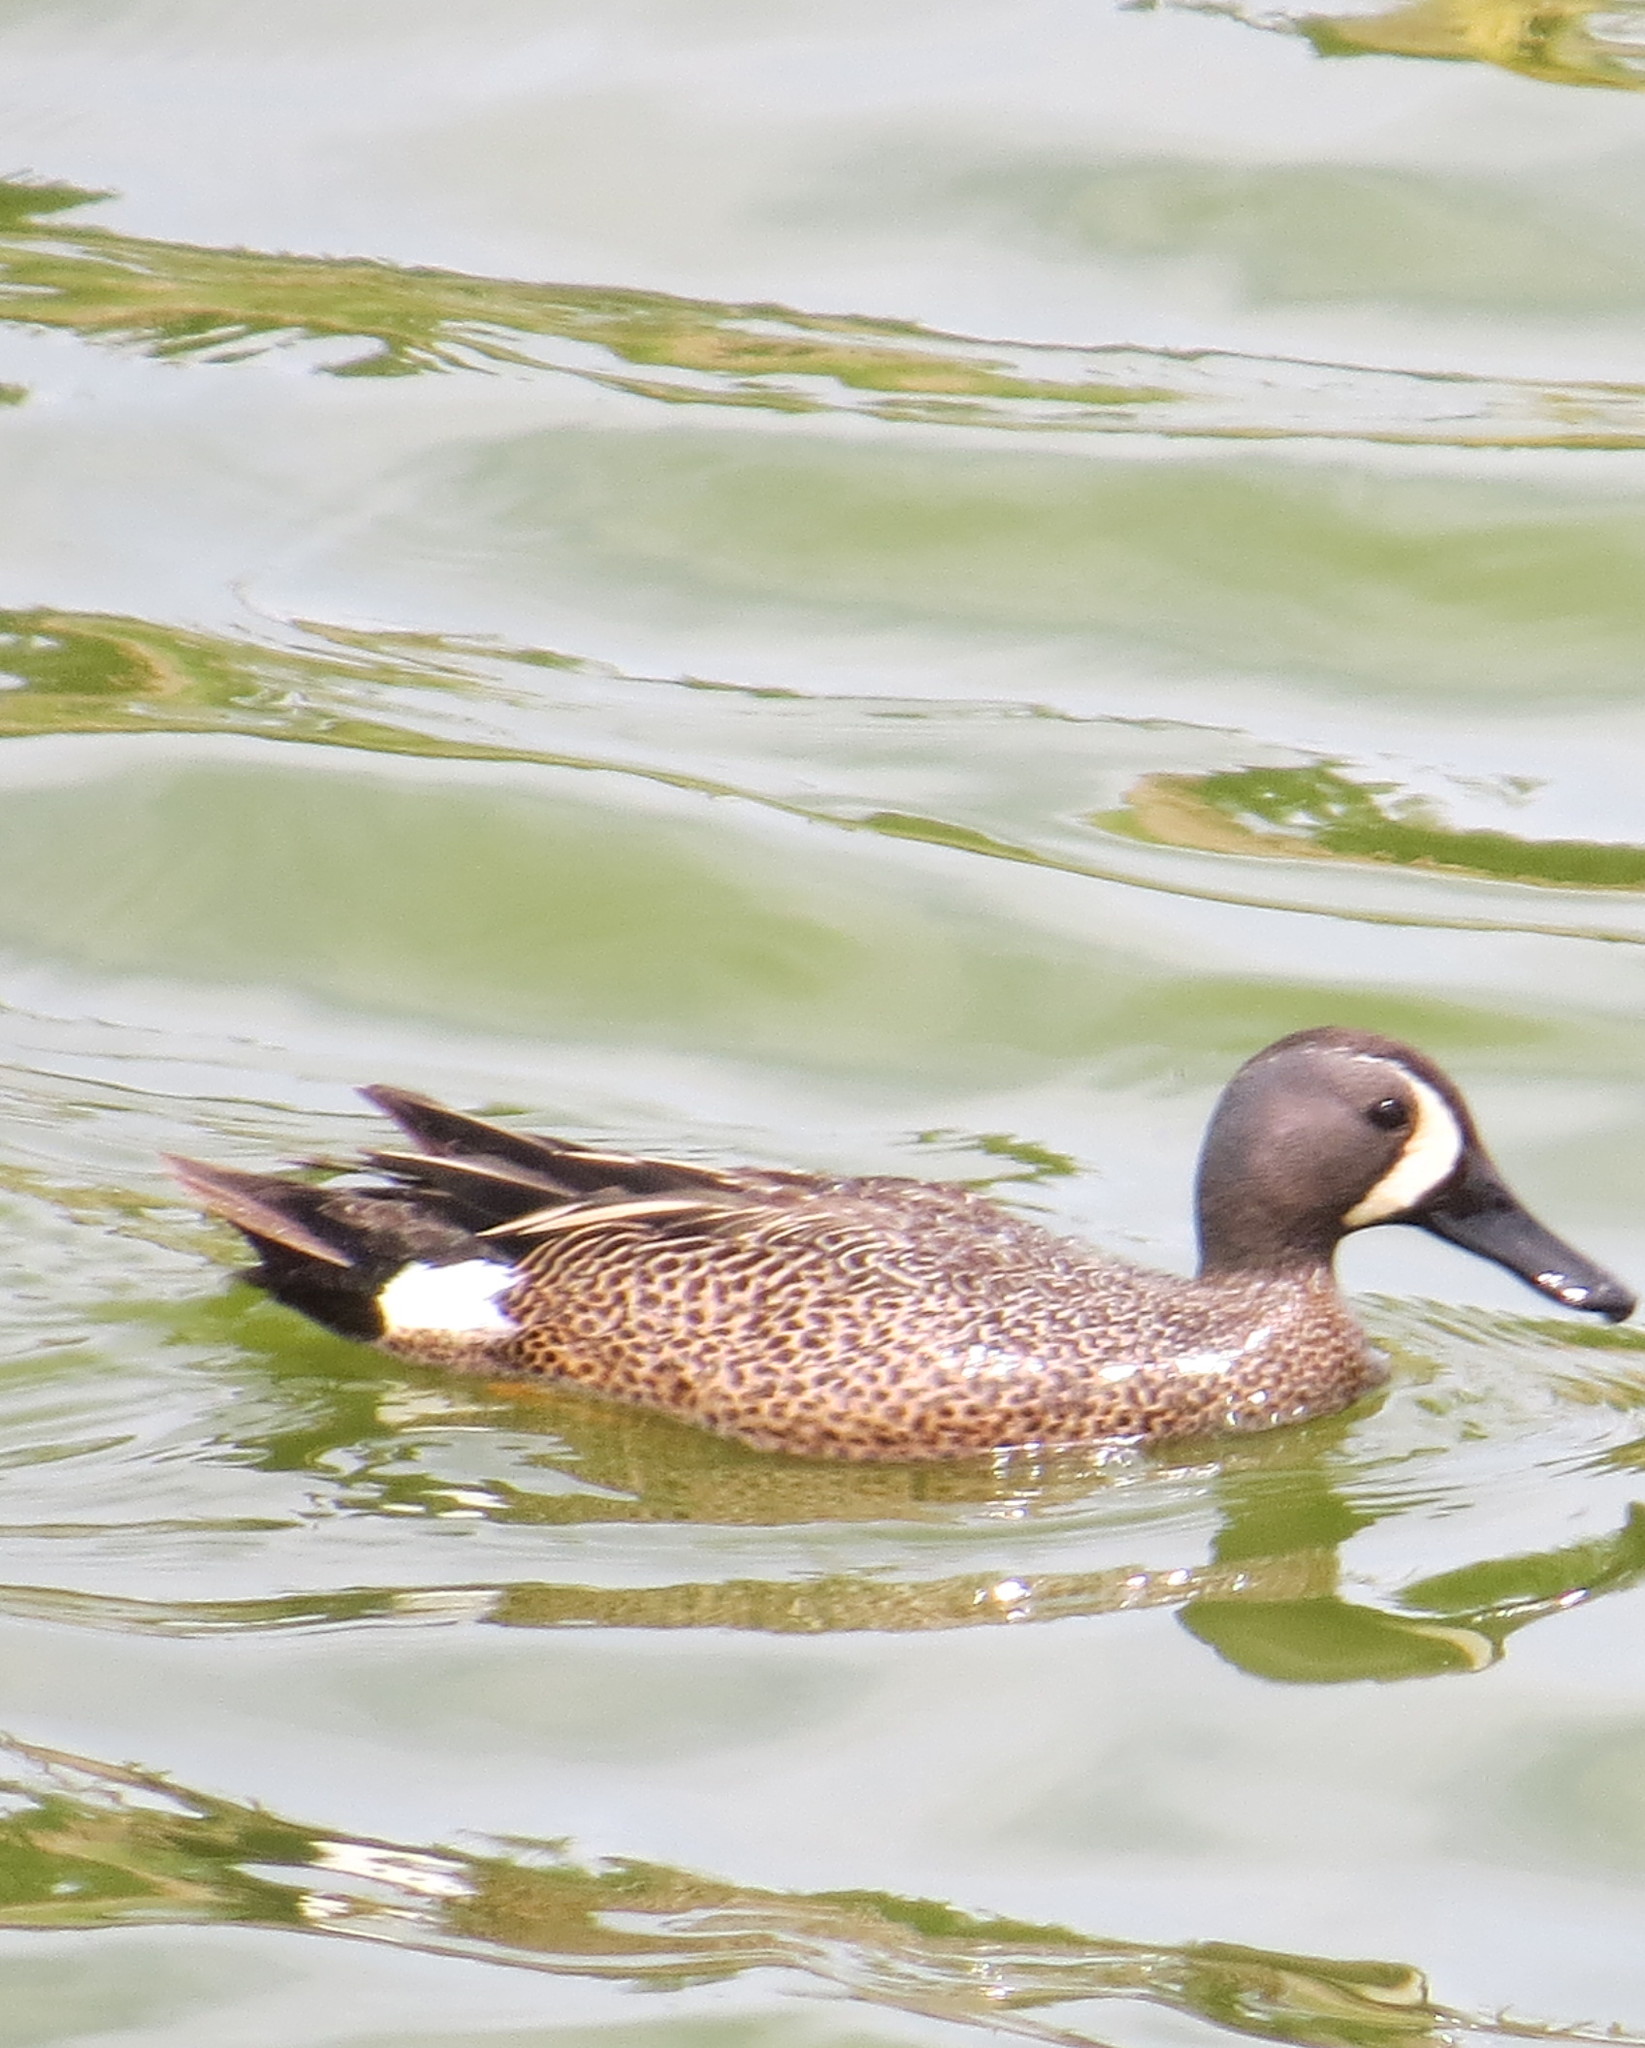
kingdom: Animalia
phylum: Chordata
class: Aves
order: Anseriformes
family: Anatidae
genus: Spatula
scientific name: Spatula discors
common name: Blue-winged teal
